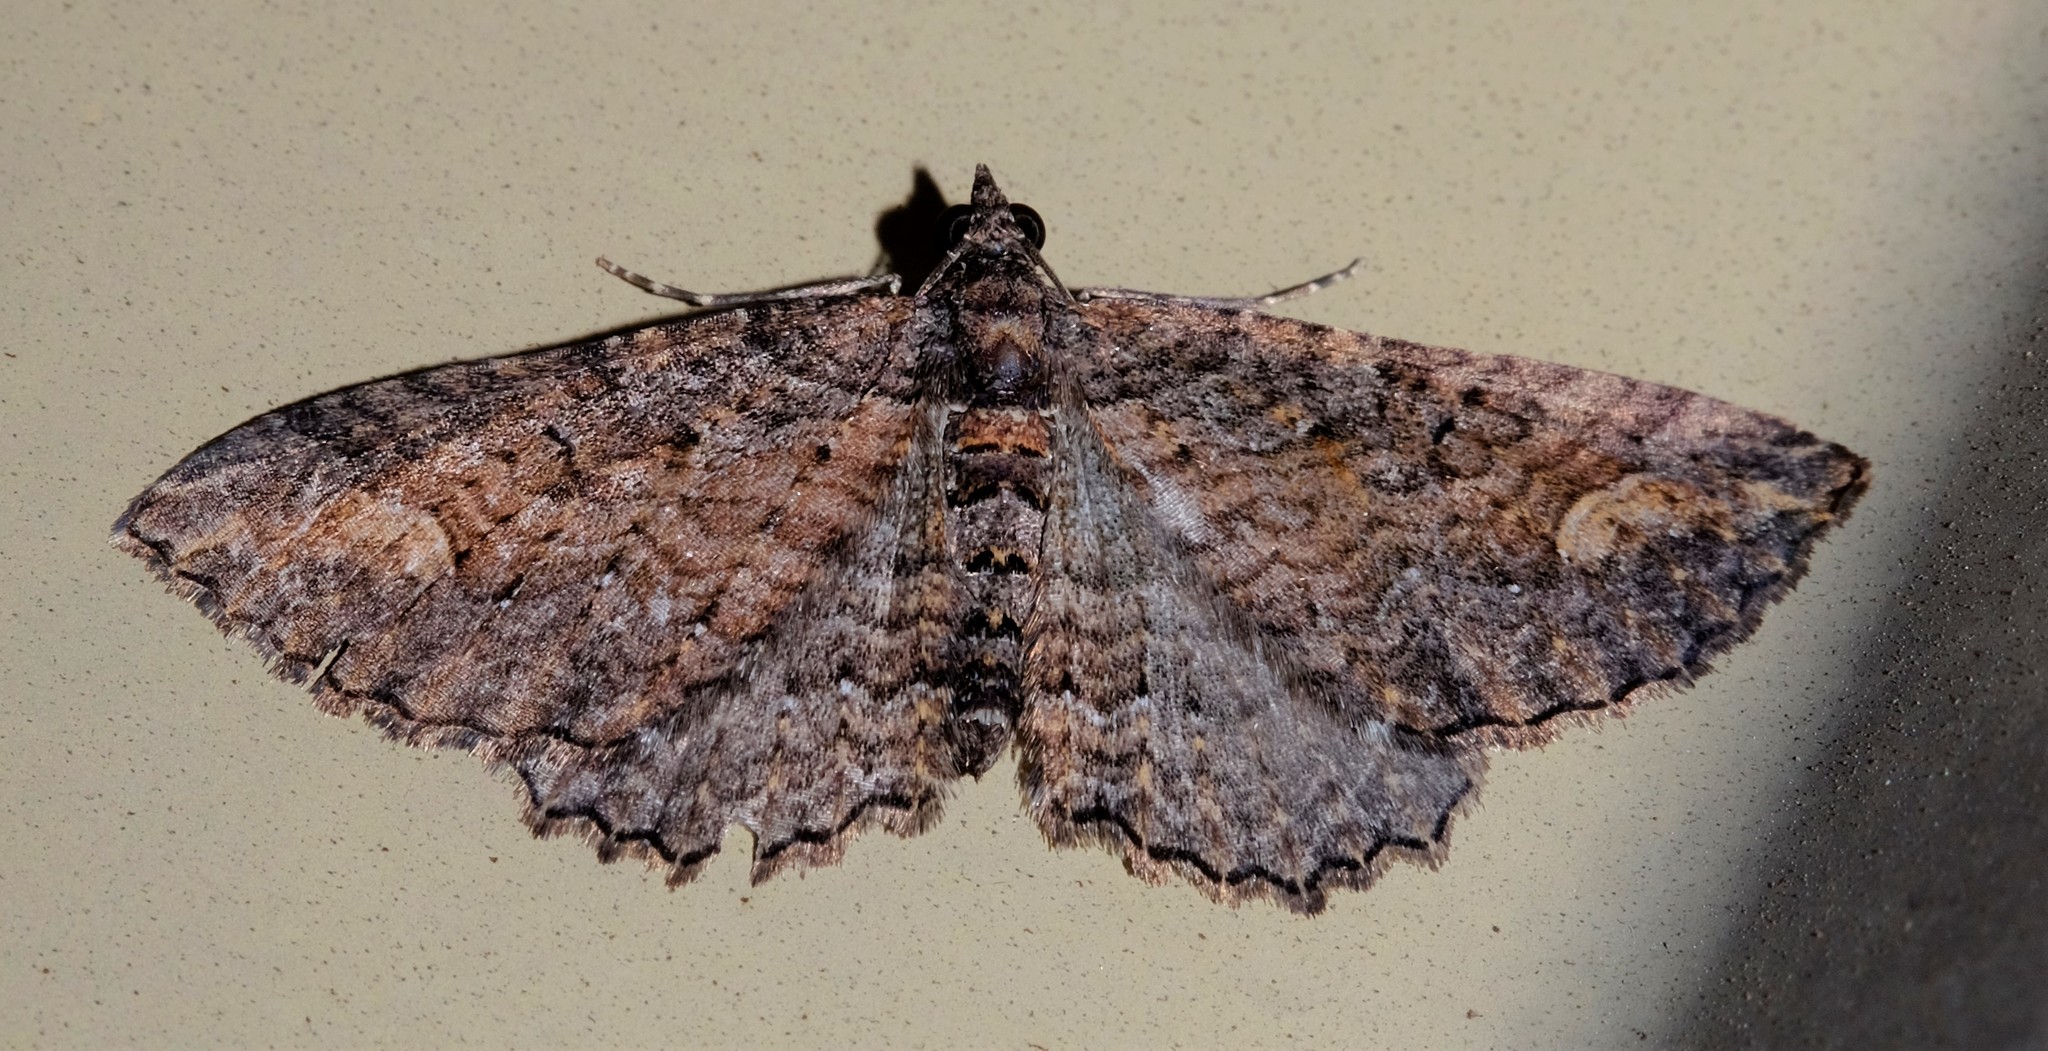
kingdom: Animalia
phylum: Arthropoda
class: Insecta
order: Lepidoptera
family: Geometridae
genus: Horisme
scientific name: Horisme mortuata
